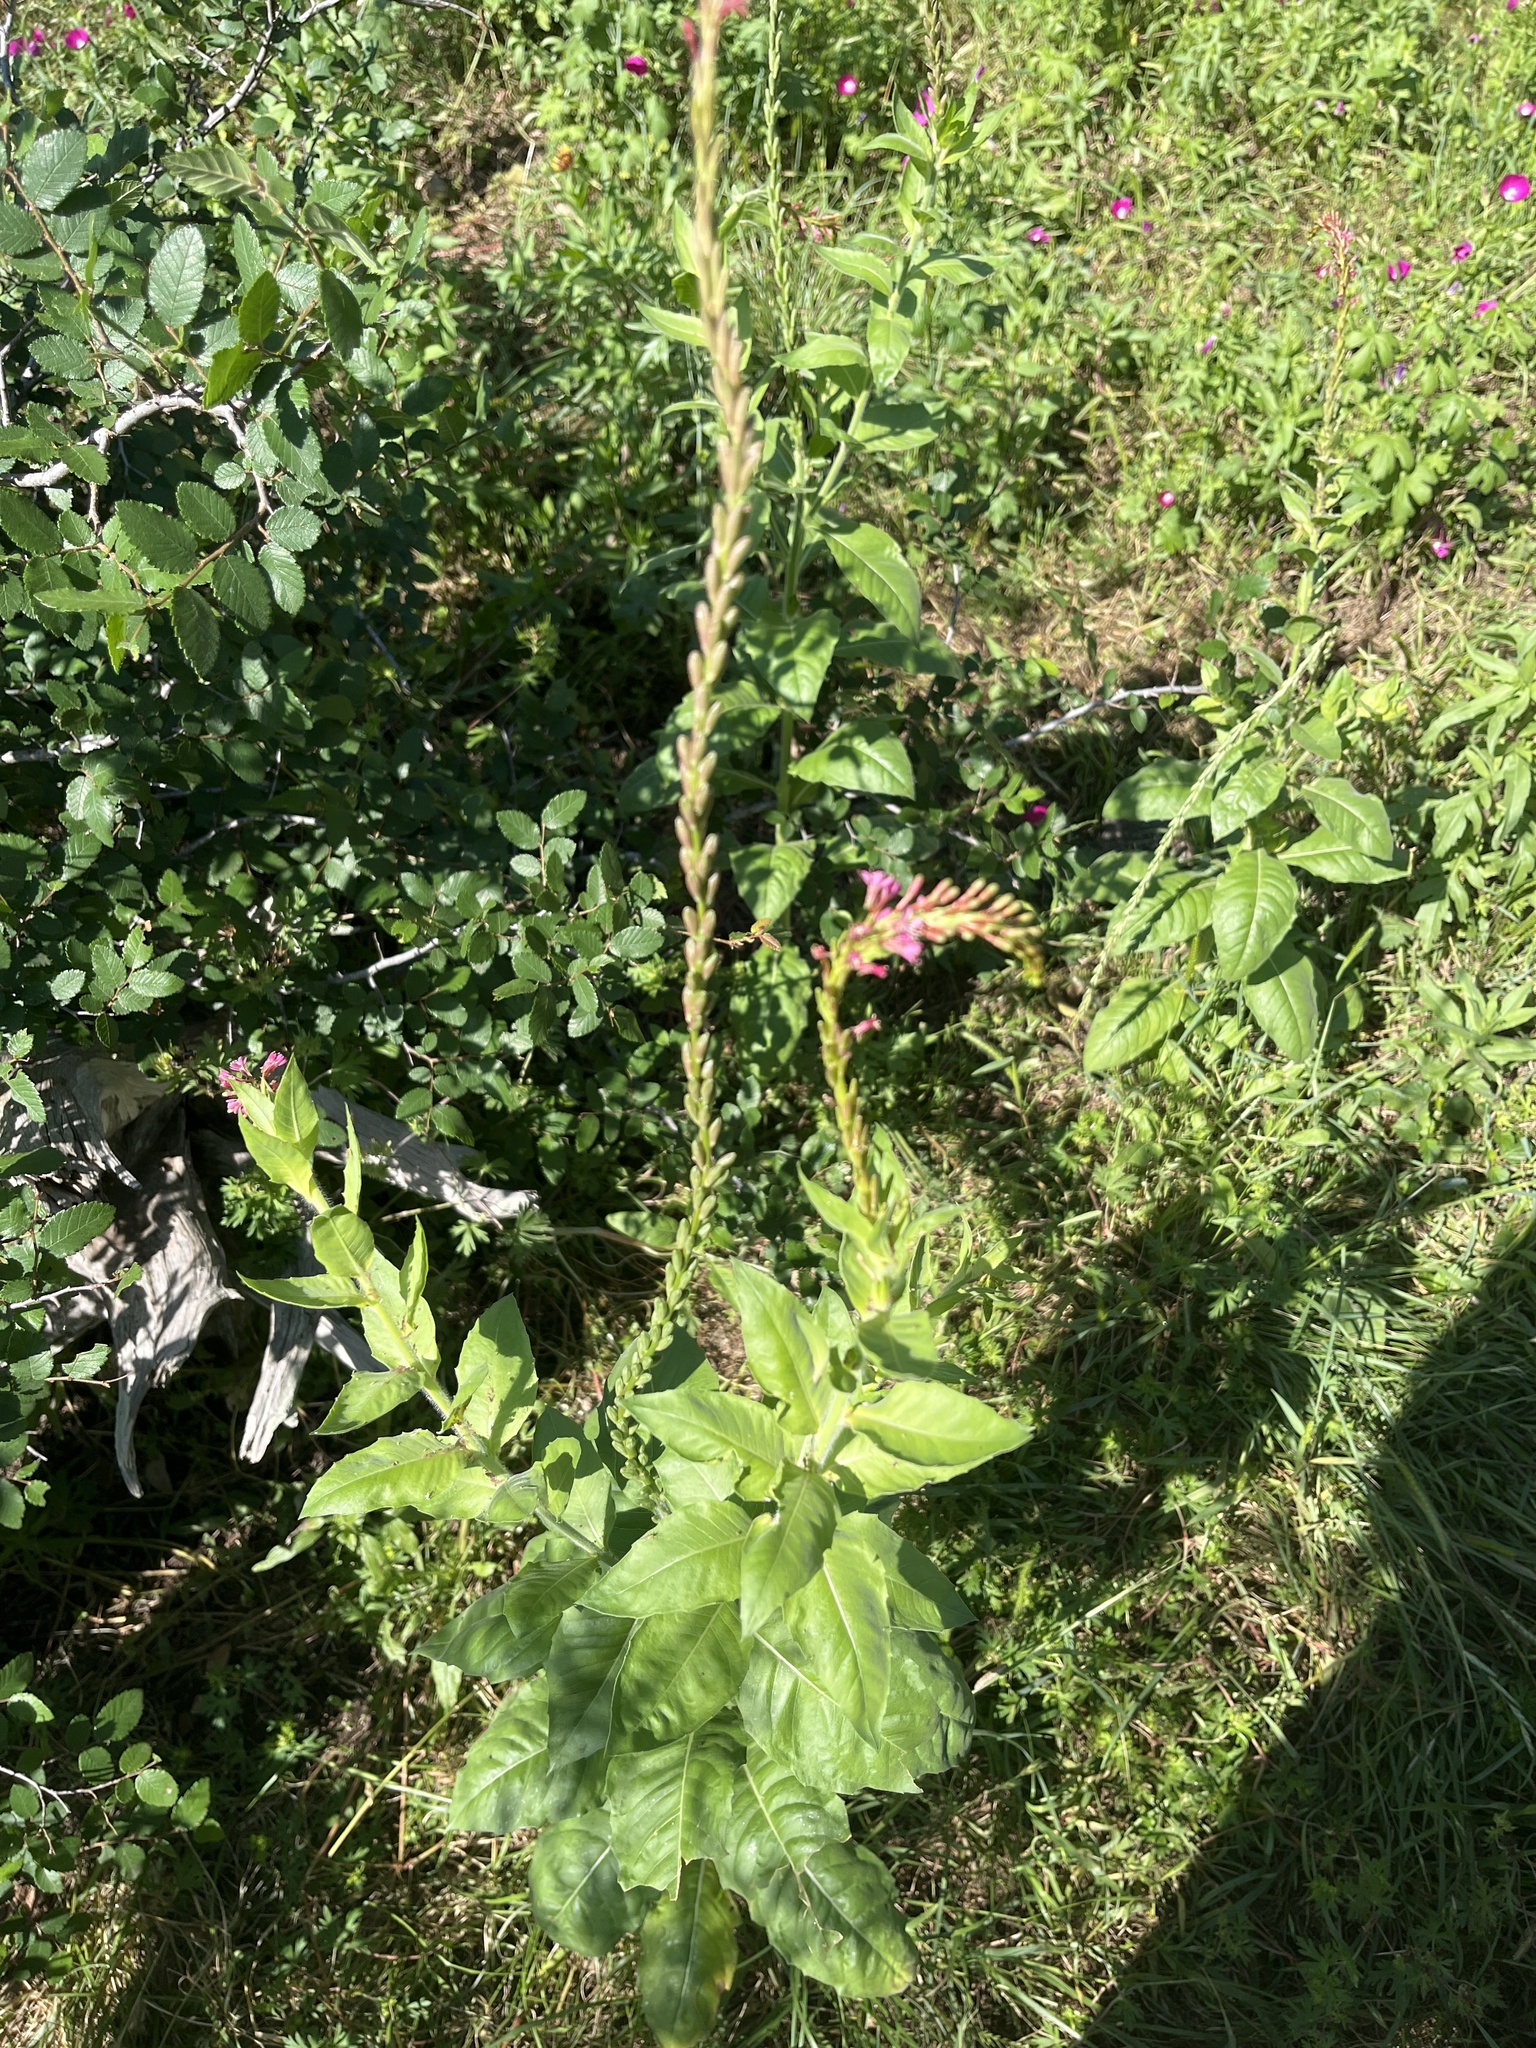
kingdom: Plantae
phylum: Tracheophyta
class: Magnoliopsida
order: Myrtales
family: Onagraceae
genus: Oenothera
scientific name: Oenothera curtiflora
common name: Velvetweed
